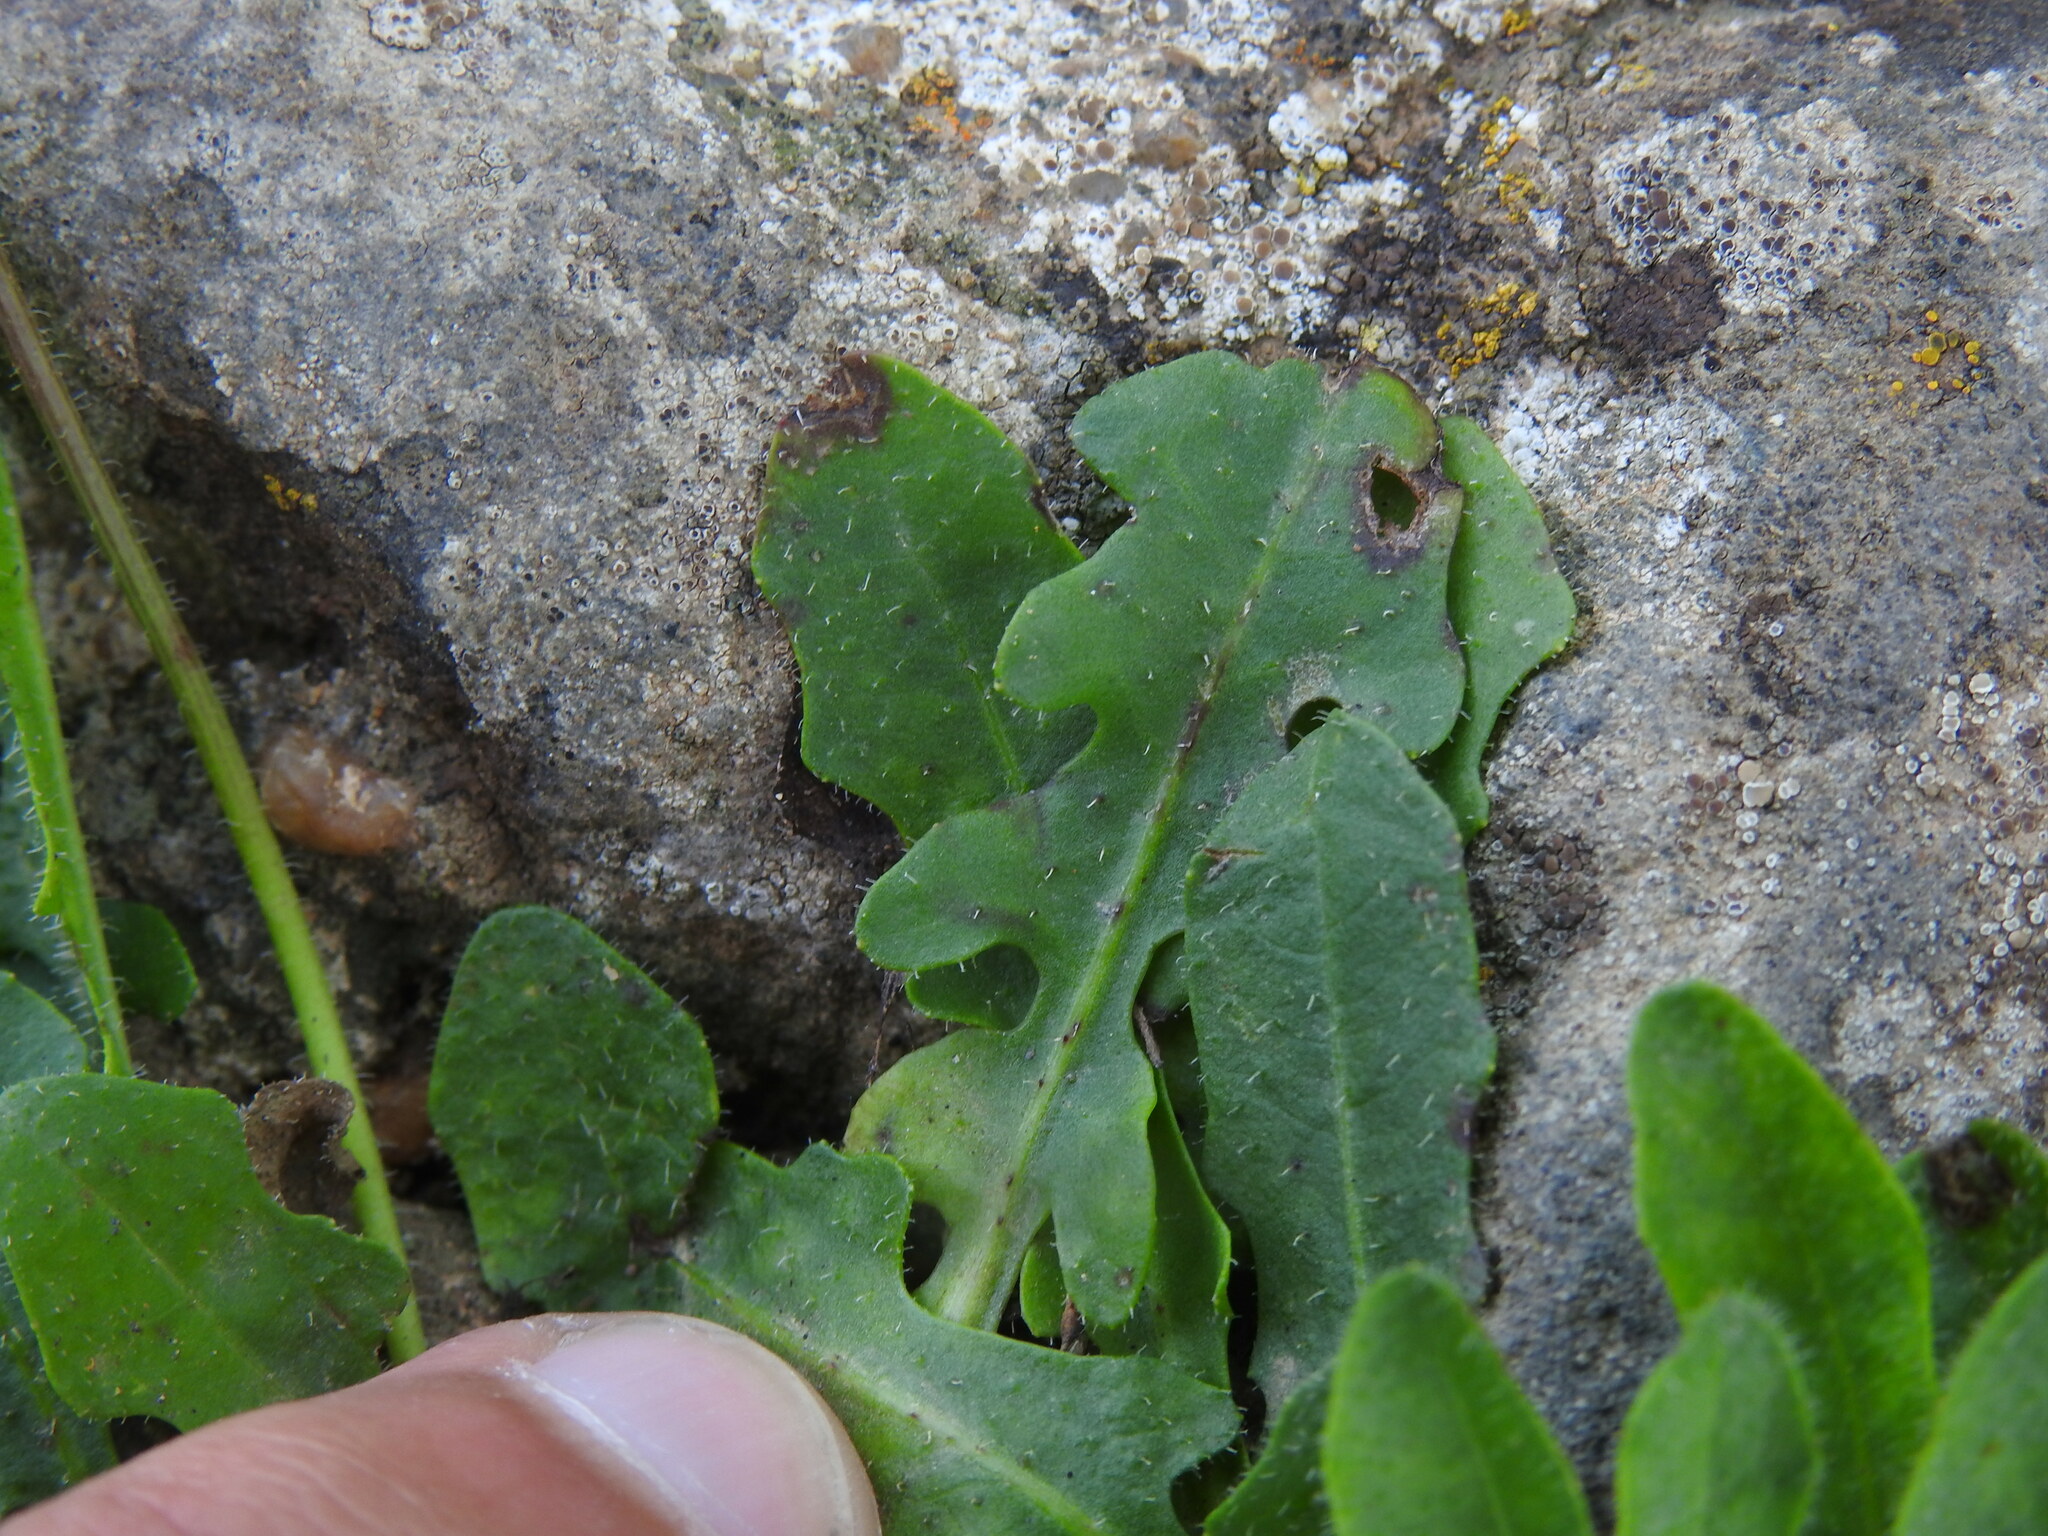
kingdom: Plantae
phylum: Tracheophyta
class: Magnoliopsida
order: Asterales
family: Asteraceae
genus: Leontodon
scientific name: Leontodon tuberosus
